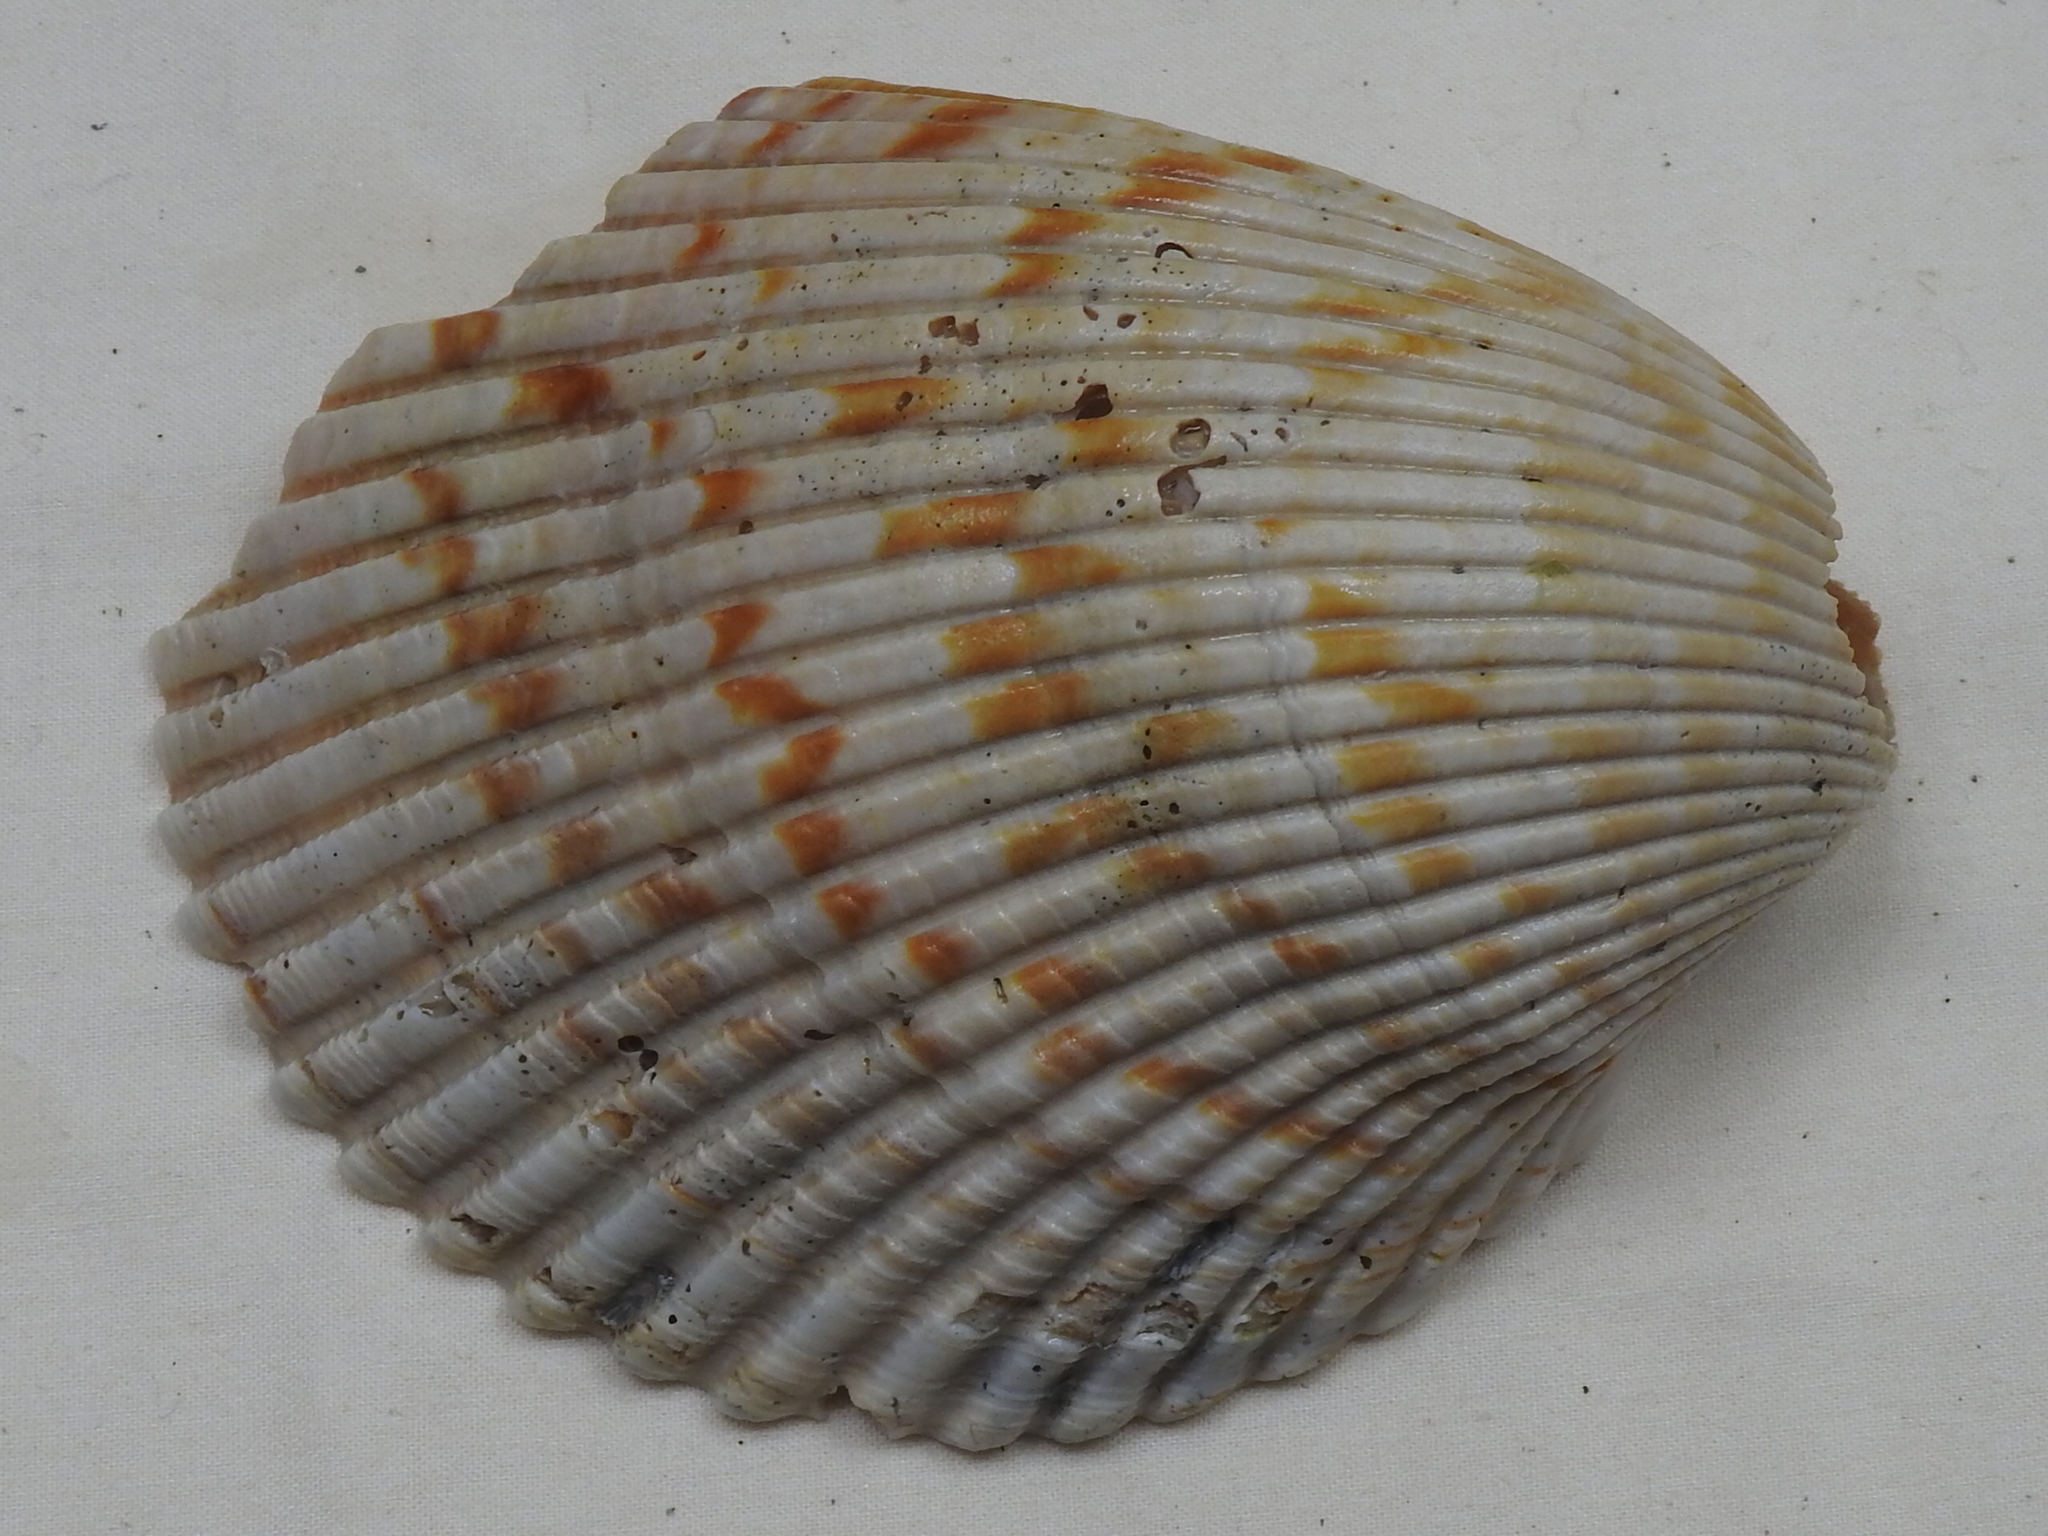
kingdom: Animalia
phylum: Mollusca
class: Bivalvia
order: Cardiida
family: Cardiidae
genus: Dinocardium
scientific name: Dinocardium robustum
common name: Atlantic giant cockle
